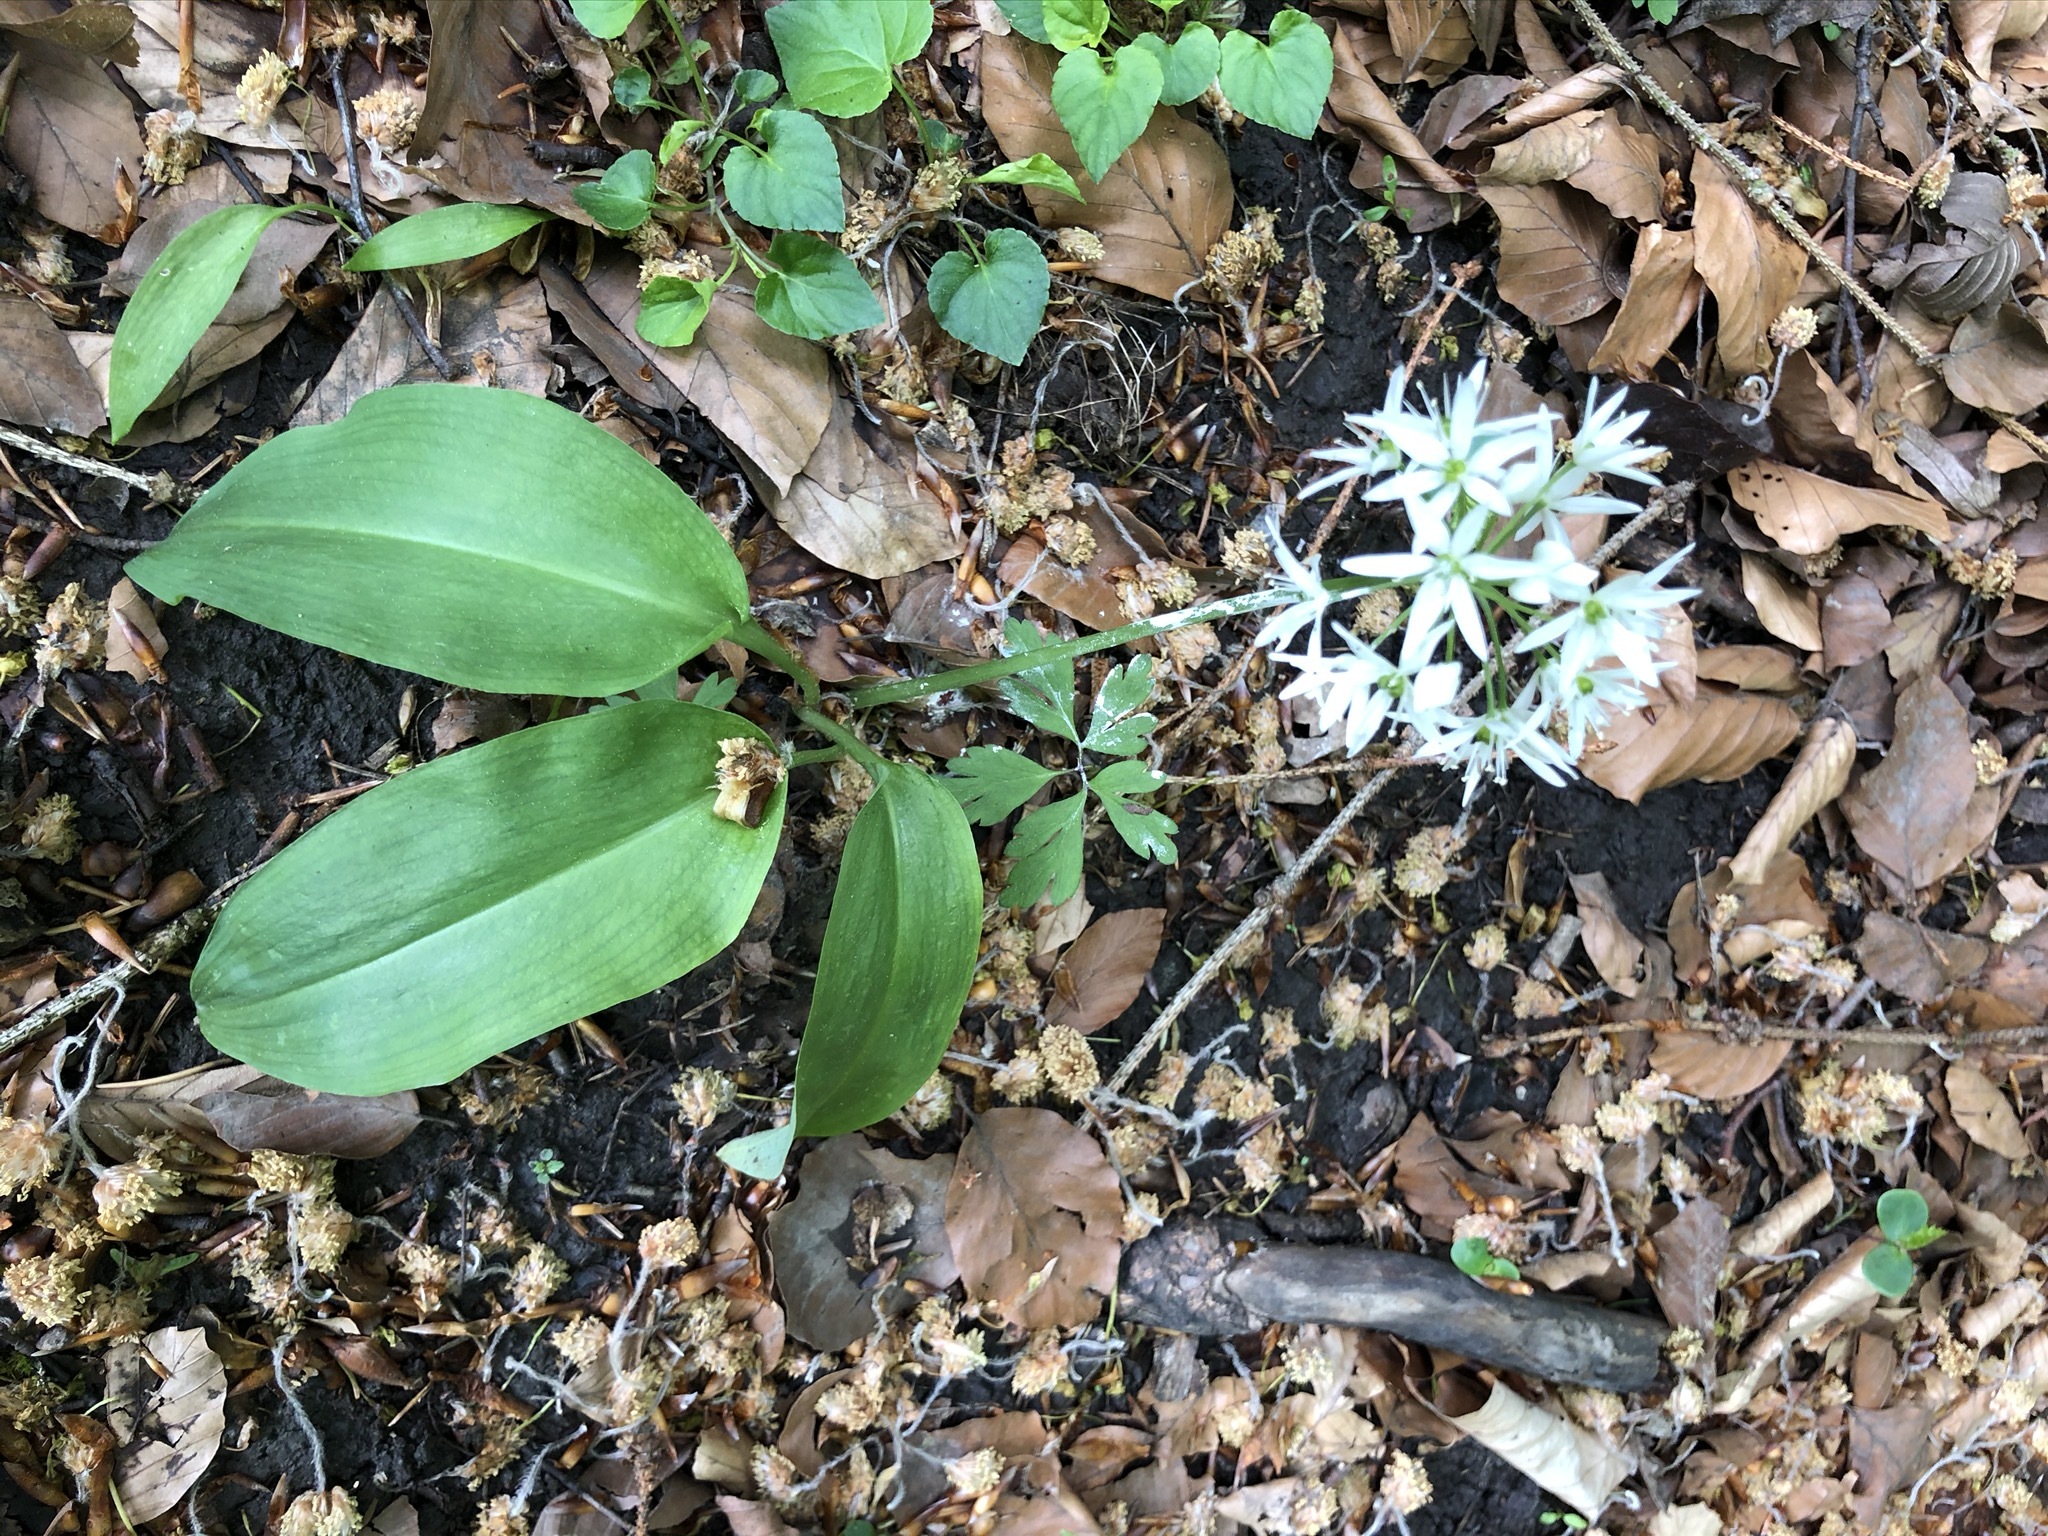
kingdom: Plantae
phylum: Tracheophyta
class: Liliopsida
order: Asparagales
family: Amaryllidaceae
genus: Allium
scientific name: Allium ursinum
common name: Ramsons
